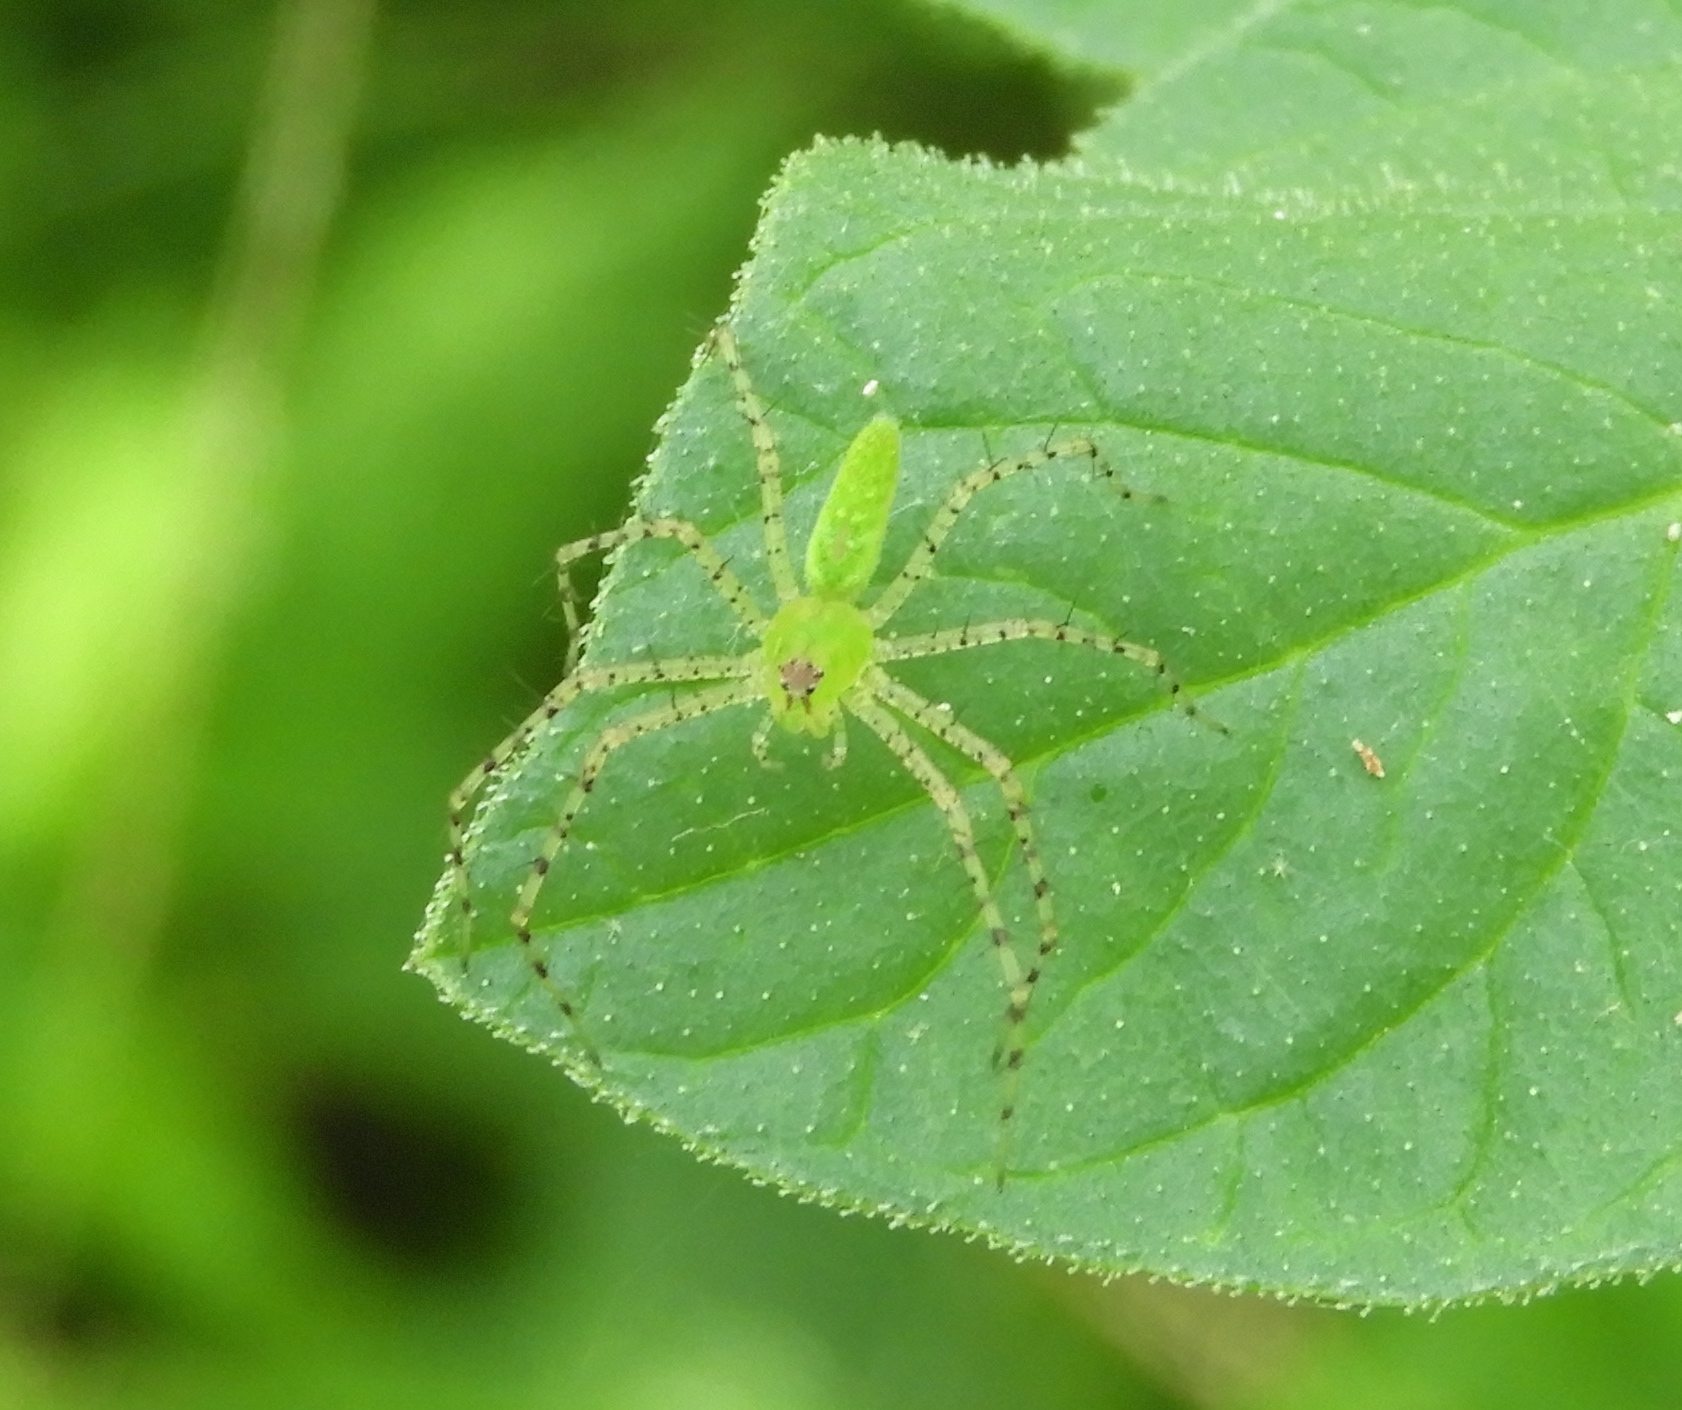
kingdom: Animalia
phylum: Arthropoda
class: Arachnida
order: Araneae
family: Oxyopidae
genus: Peucetia
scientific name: Peucetia viridans
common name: Lynx spiders
